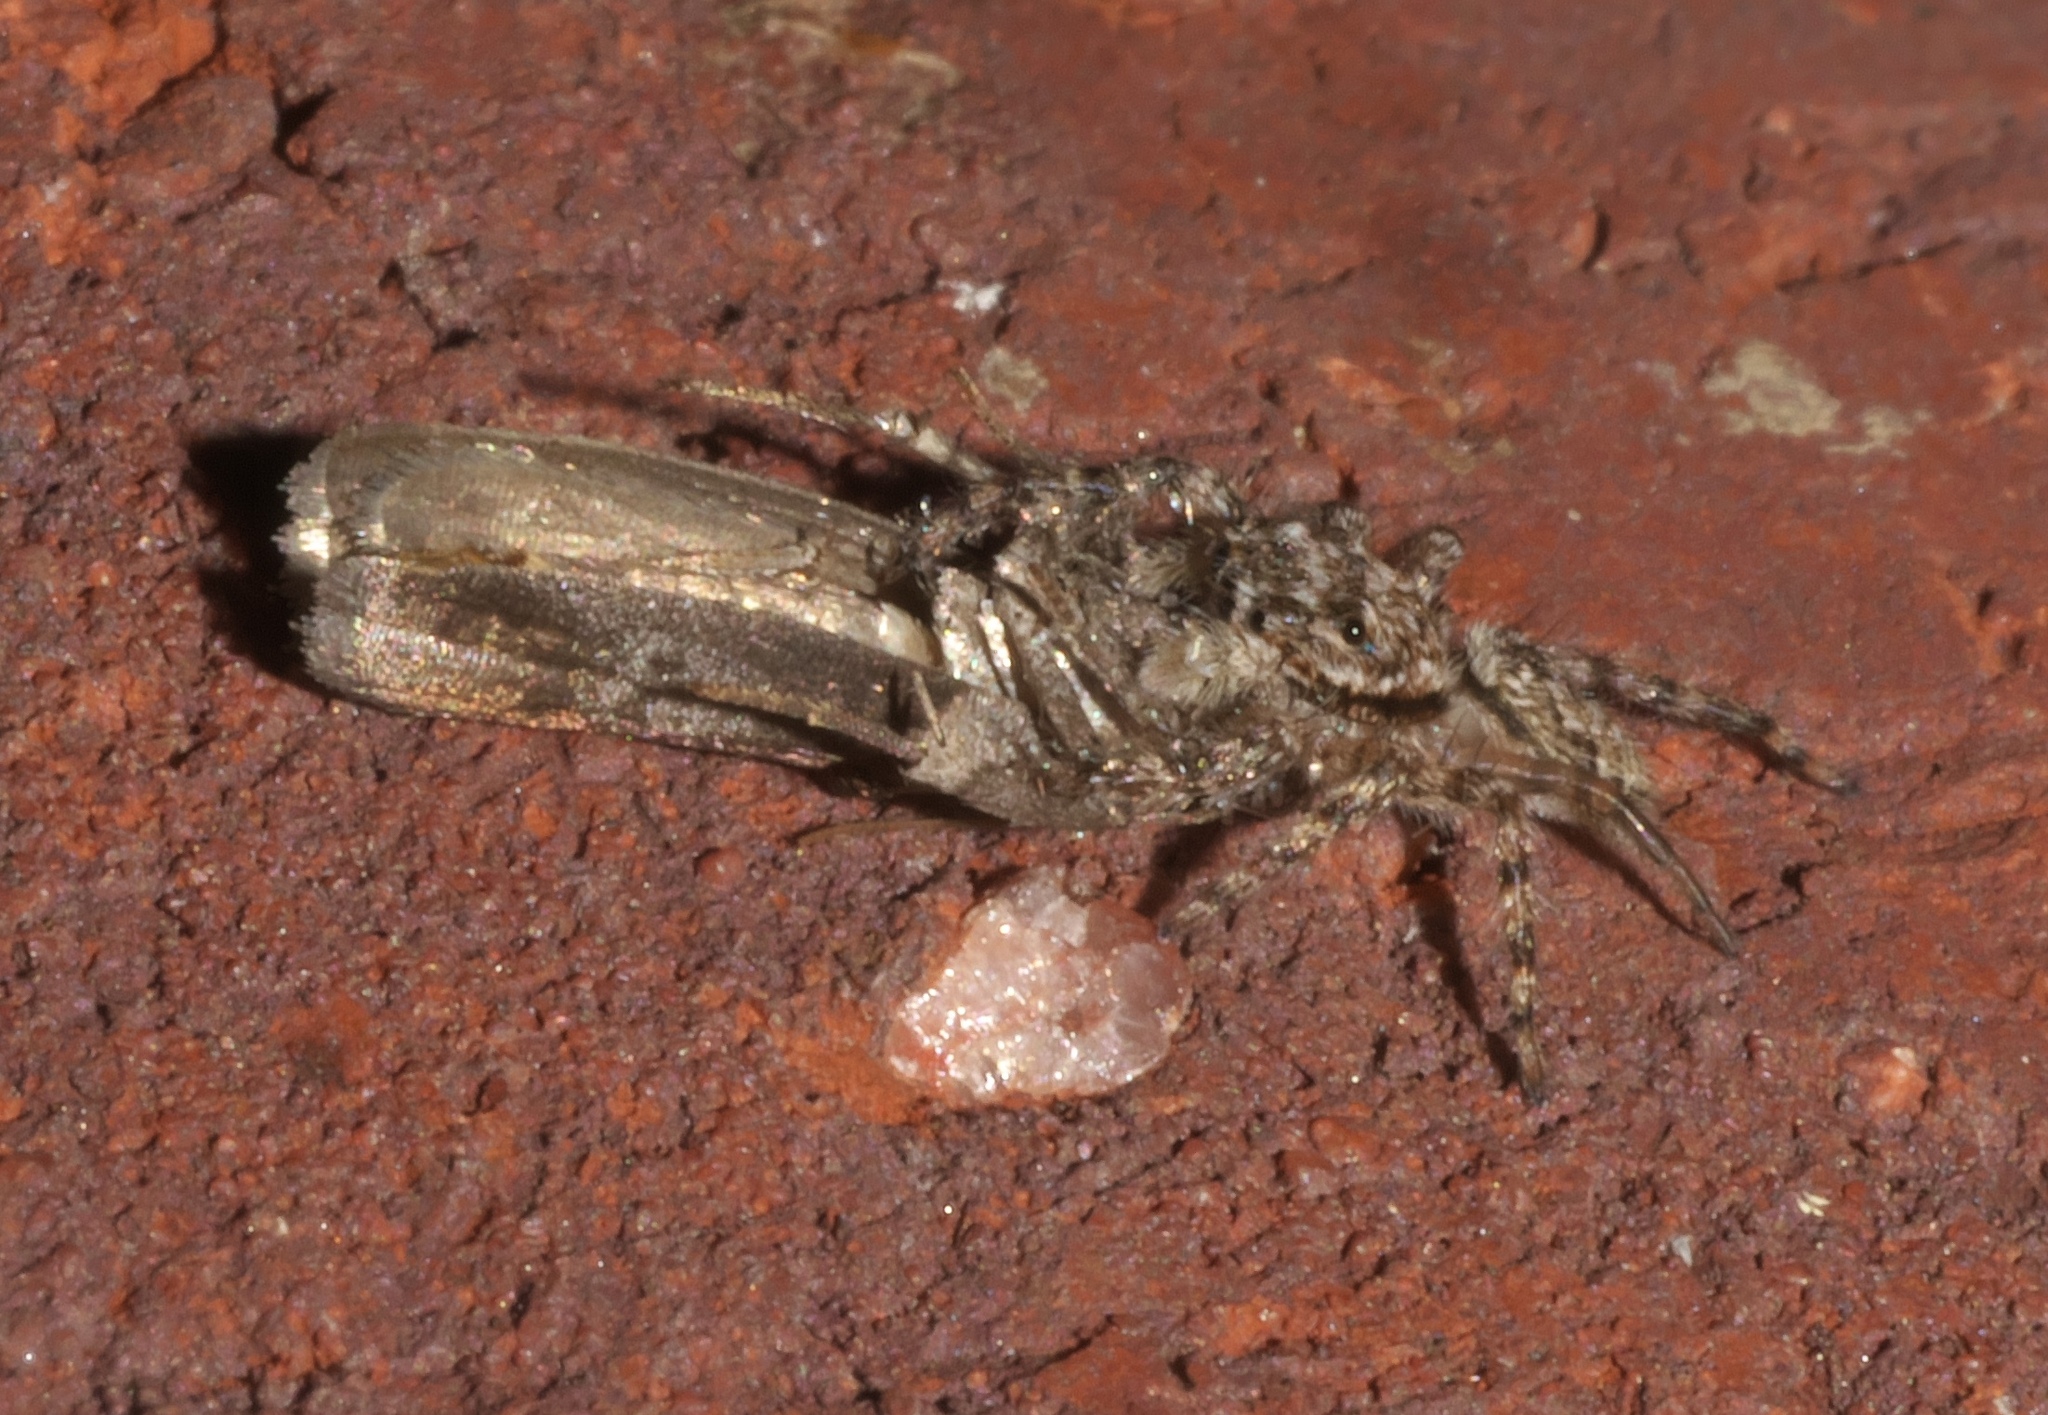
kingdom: Animalia
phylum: Arthropoda
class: Arachnida
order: Araneae
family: Salticidae
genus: Platycryptus
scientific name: Platycryptus undatus
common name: Tan jumping spider
